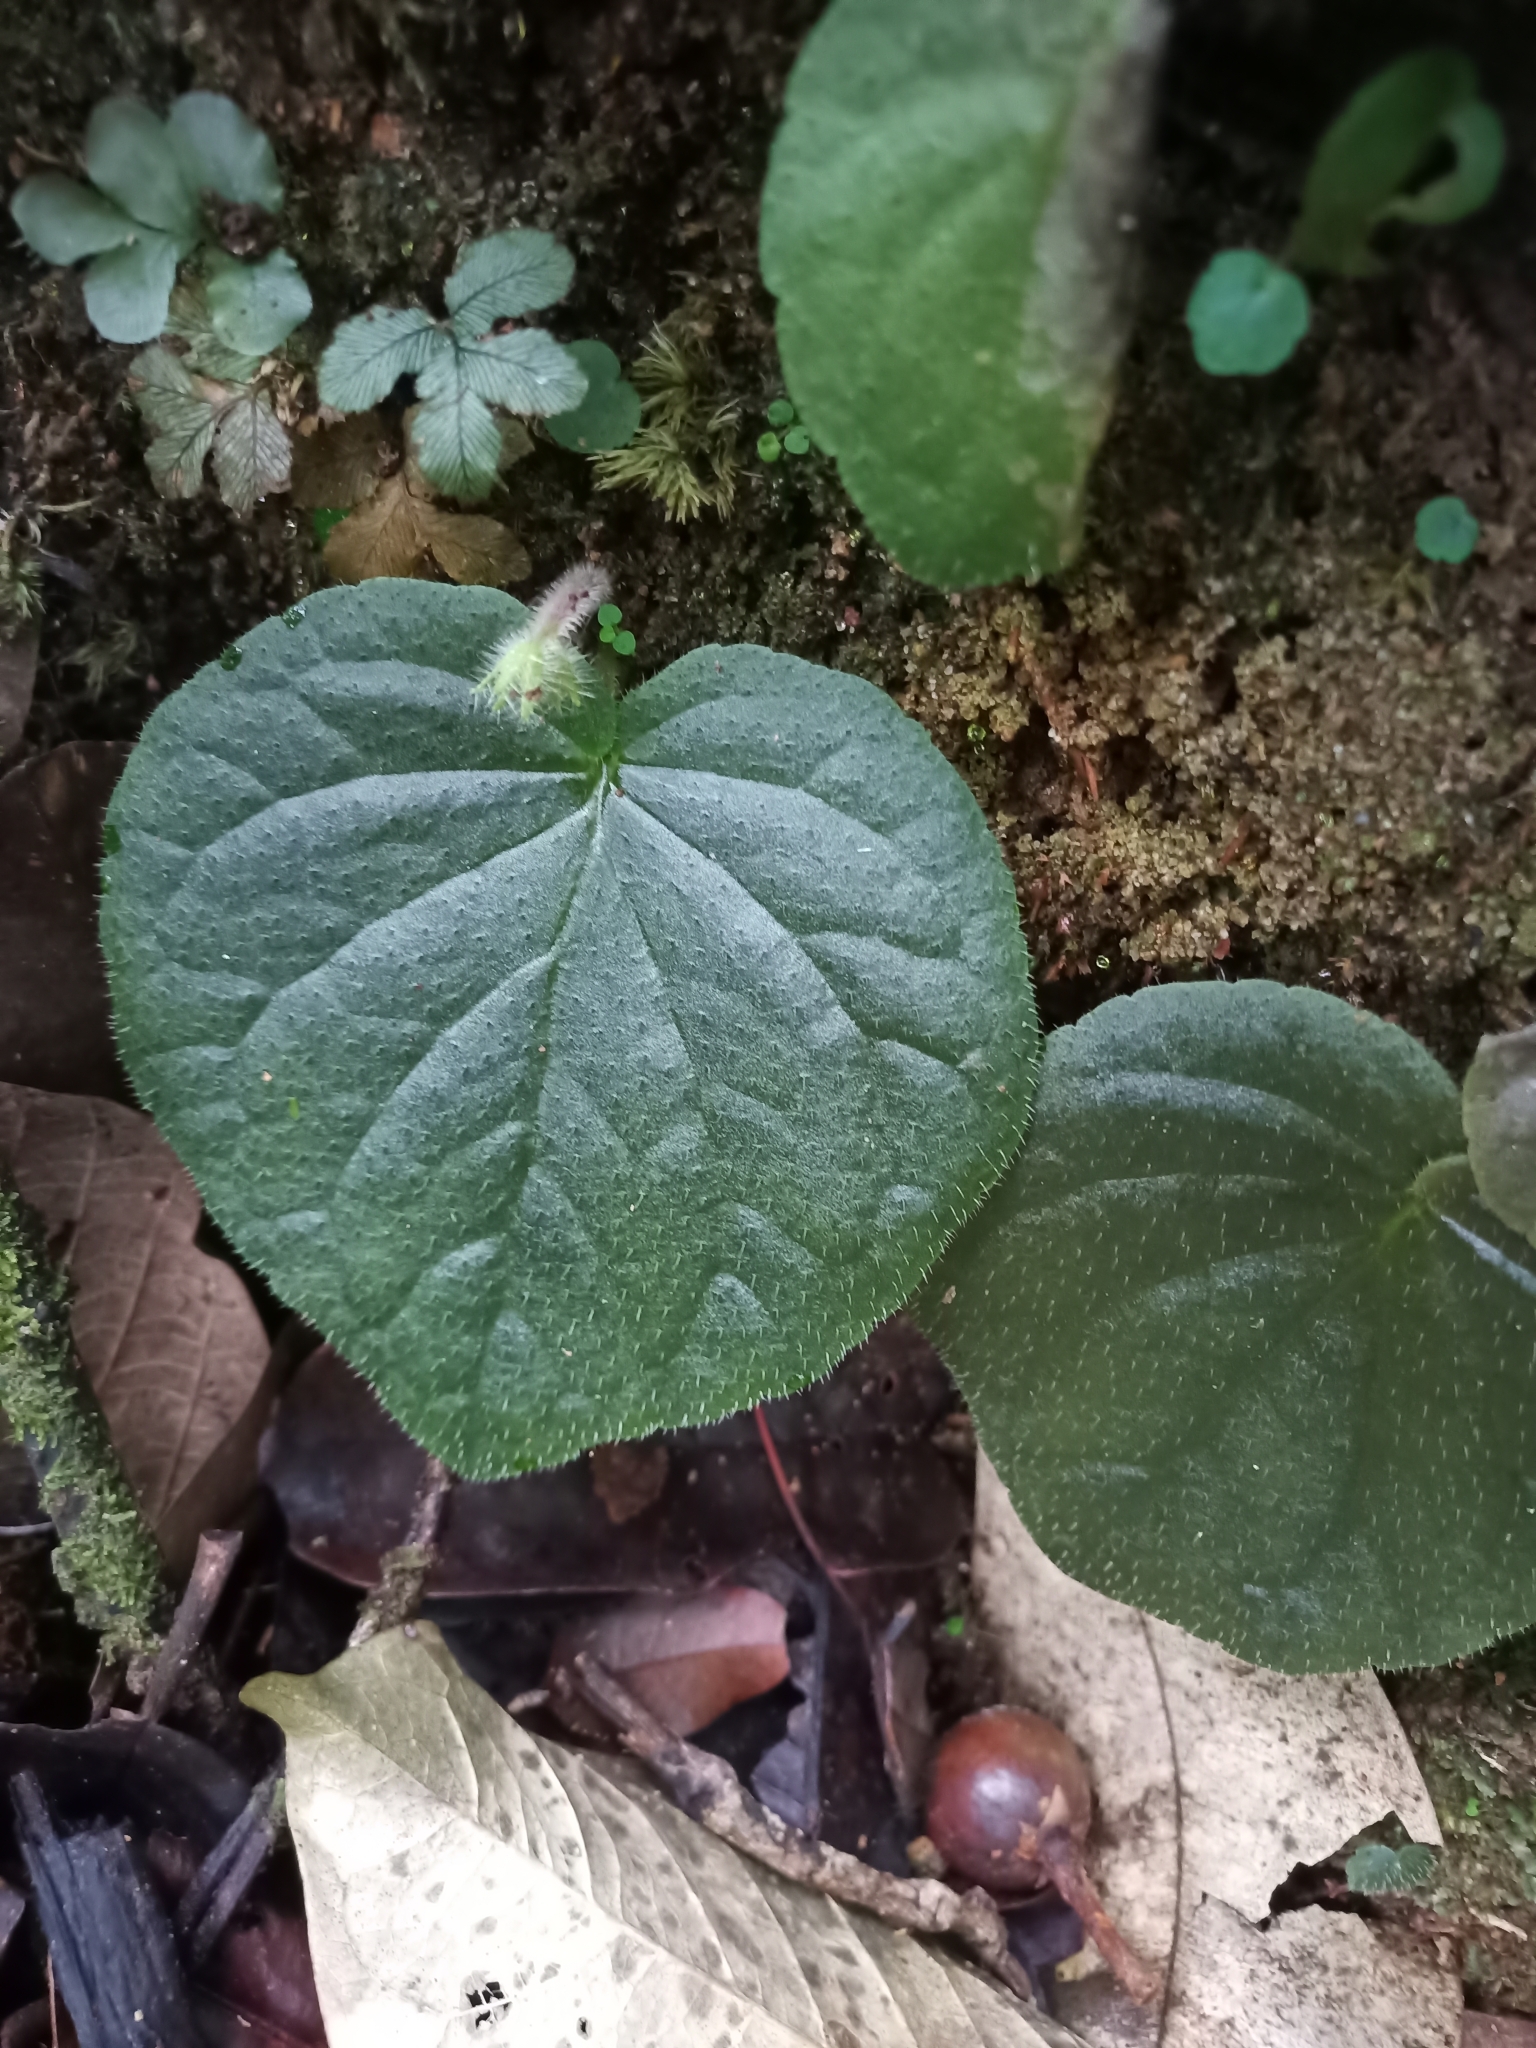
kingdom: Plantae
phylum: Tracheophyta
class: Magnoliopsida
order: Lamiales
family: Gesneriaceae
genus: Lembocarpus
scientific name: Lembocarpus amoenus
